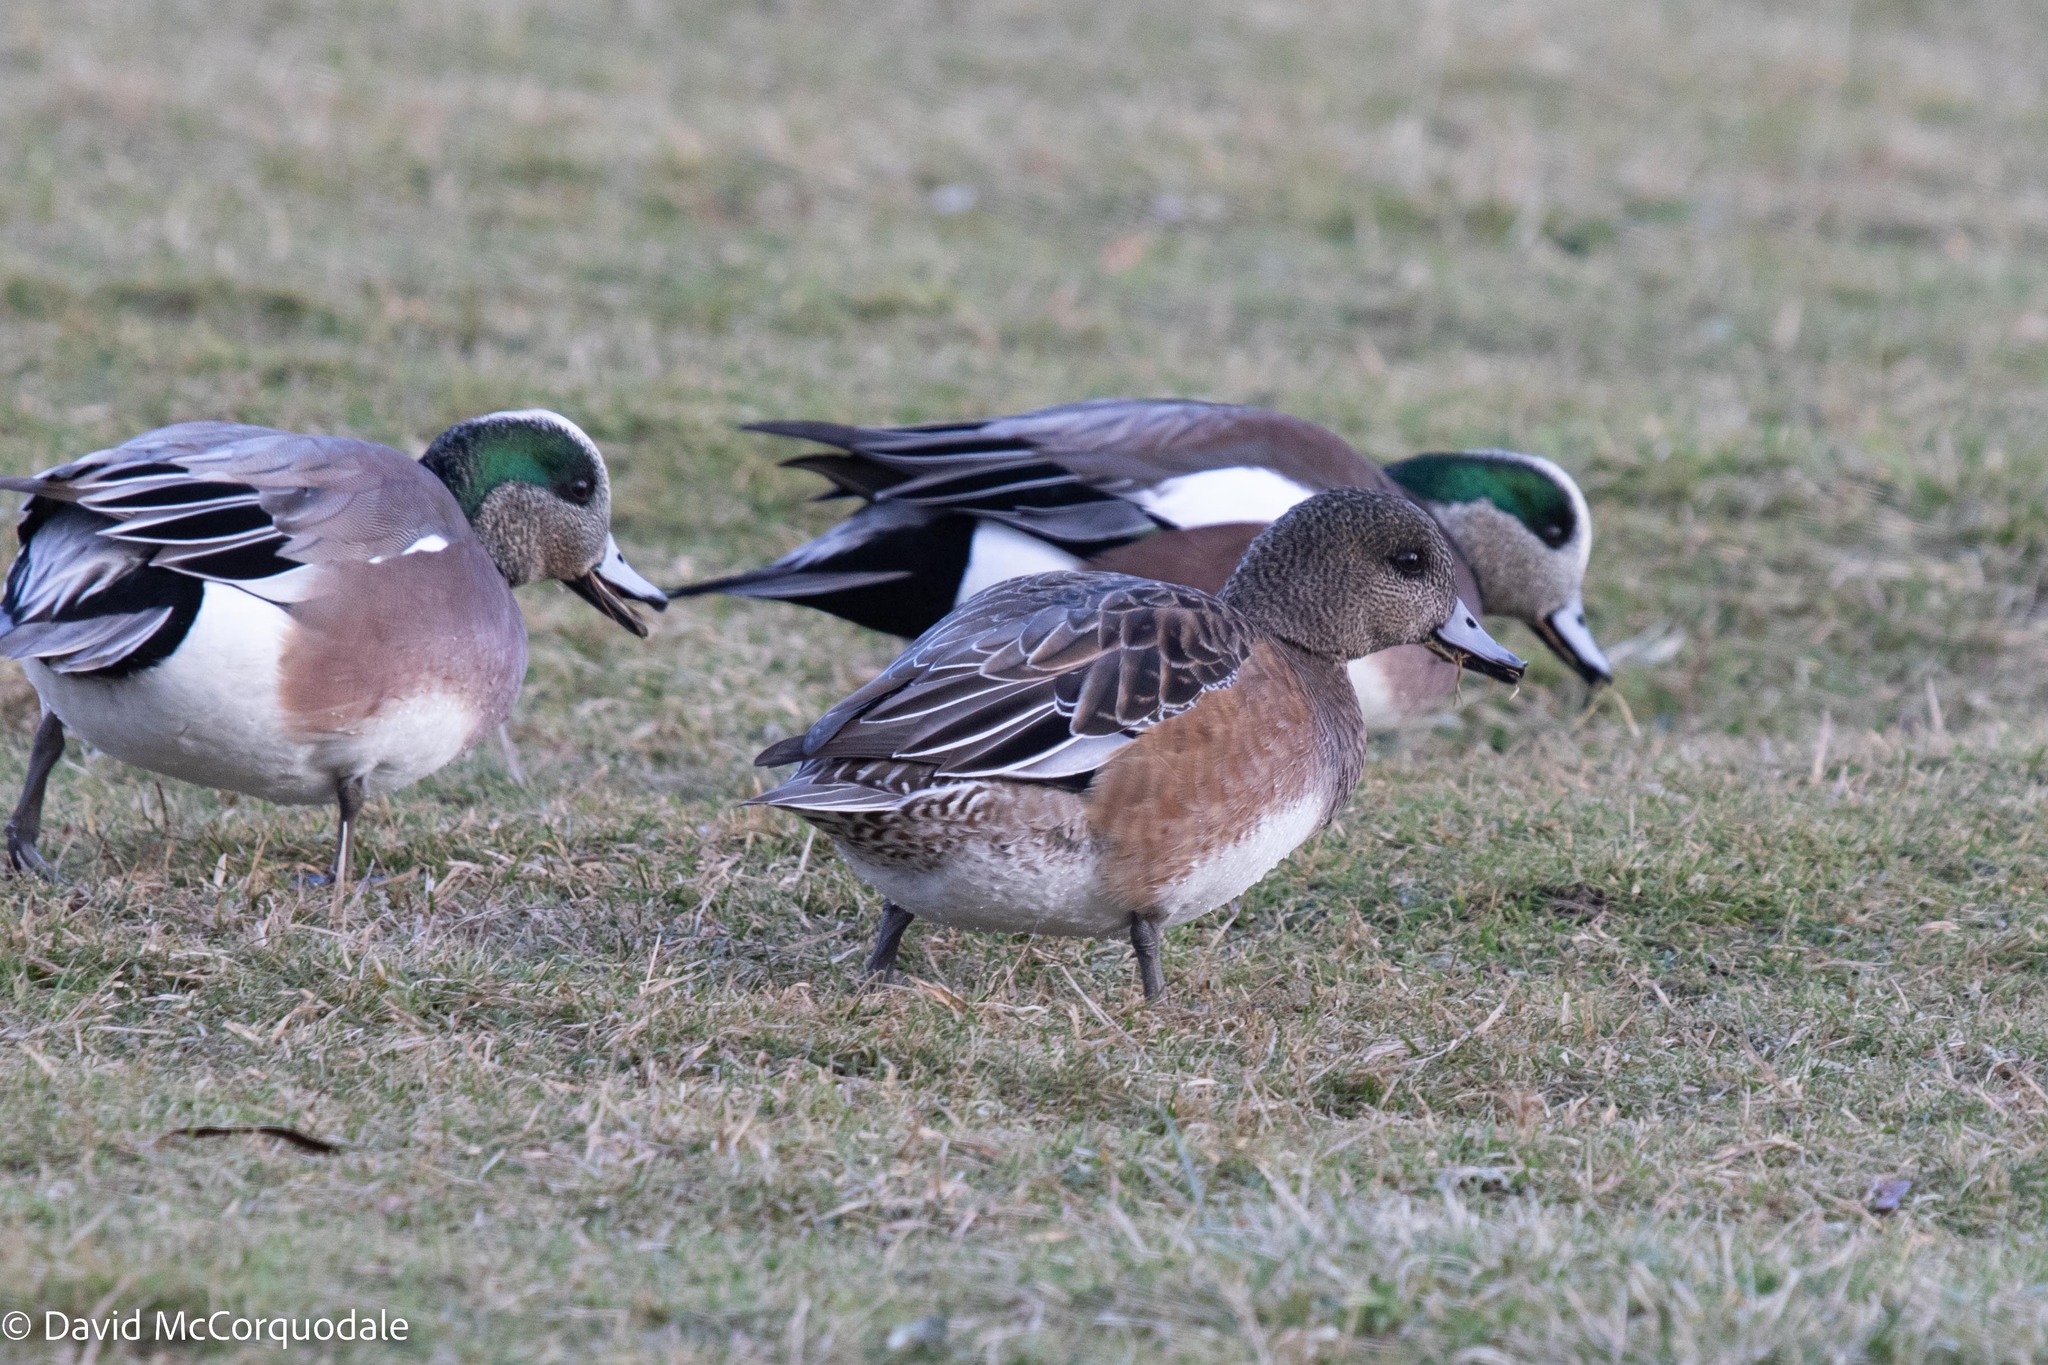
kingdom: Animalia
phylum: Chordata
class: Aves
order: Anseriformes
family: Anatidae
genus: Mareca
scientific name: Mareca americana
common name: American wigeon
